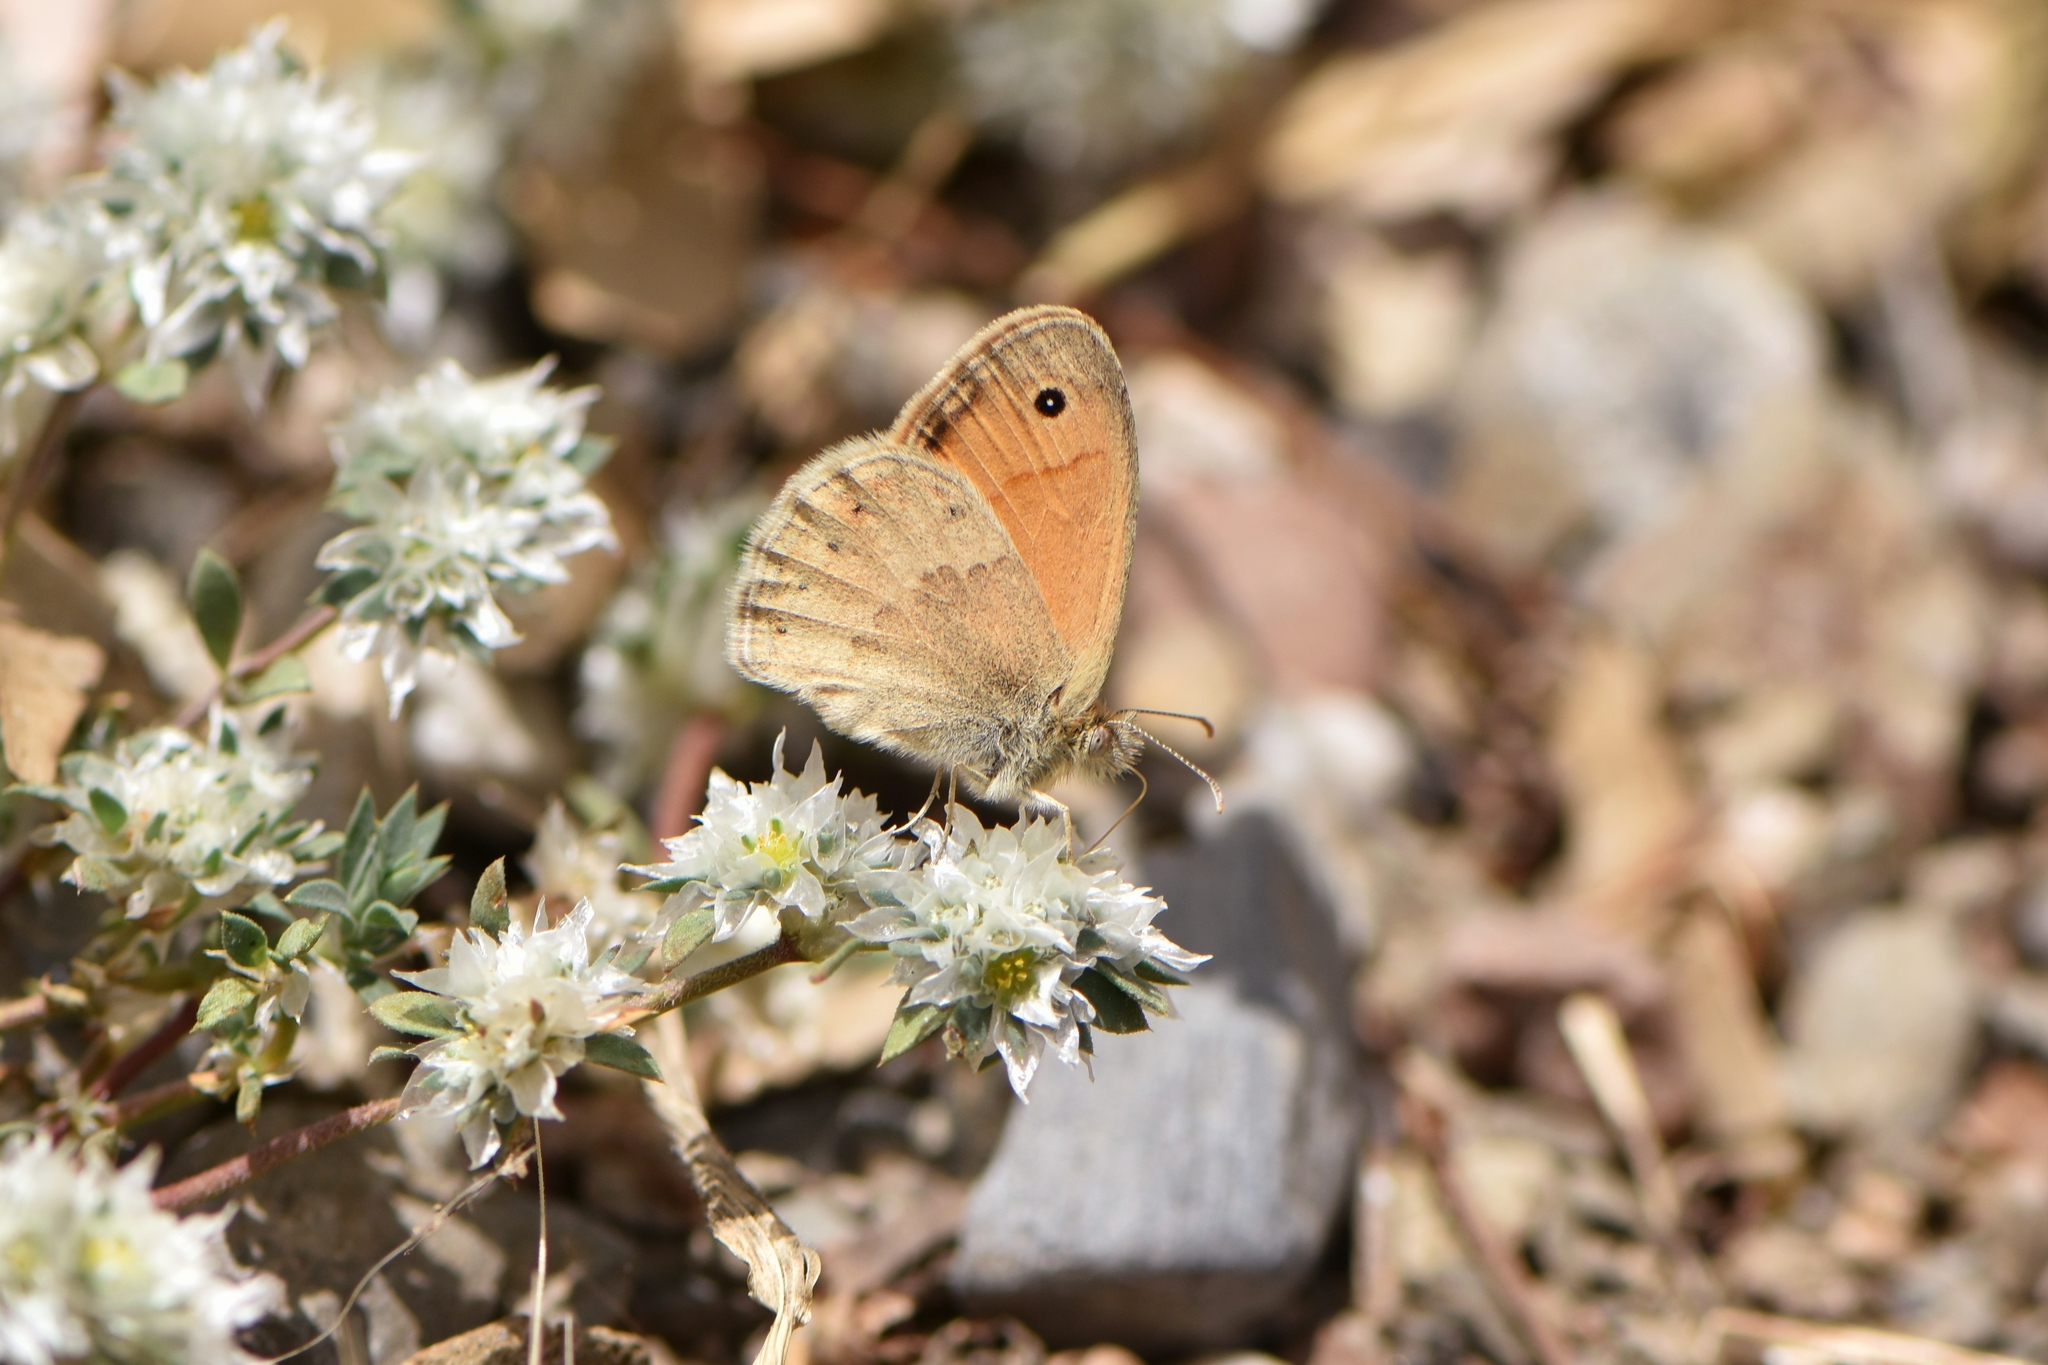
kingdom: Animalia
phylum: Arthropoda
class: Insecta
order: Lepidoptera
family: Nymphalidae
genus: Coenonympha
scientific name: Coenonympha pamphilus
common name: Small heath
